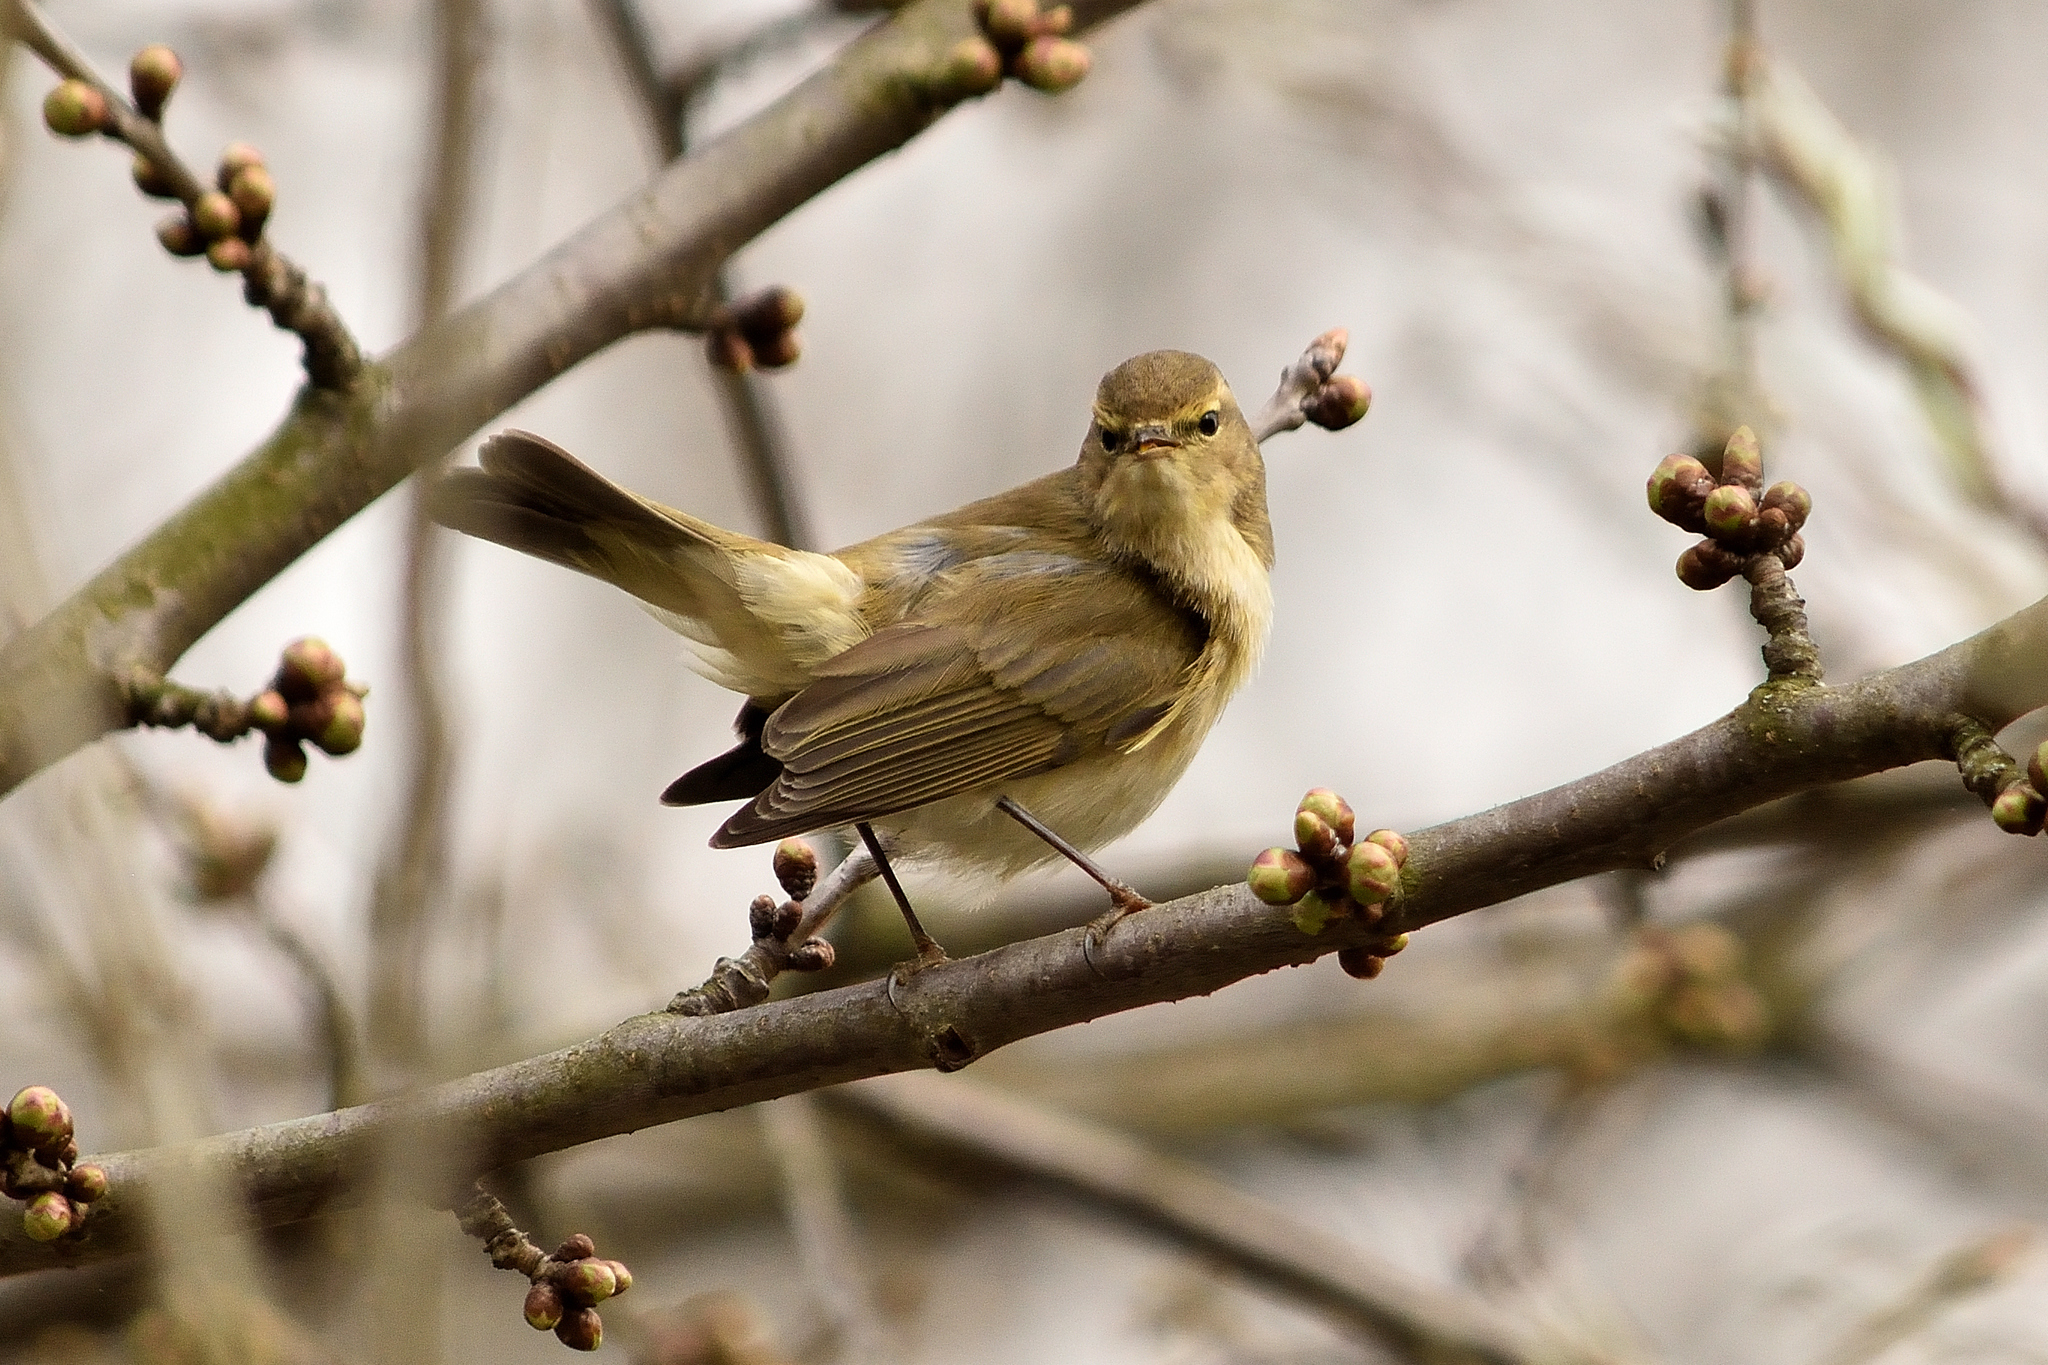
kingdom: Animalia
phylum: Chordata
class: Aves
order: Passeriformes
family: Phylloscopidae
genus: Phylloscopus
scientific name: Phylloscopus collybita
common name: Common chiffchaff
